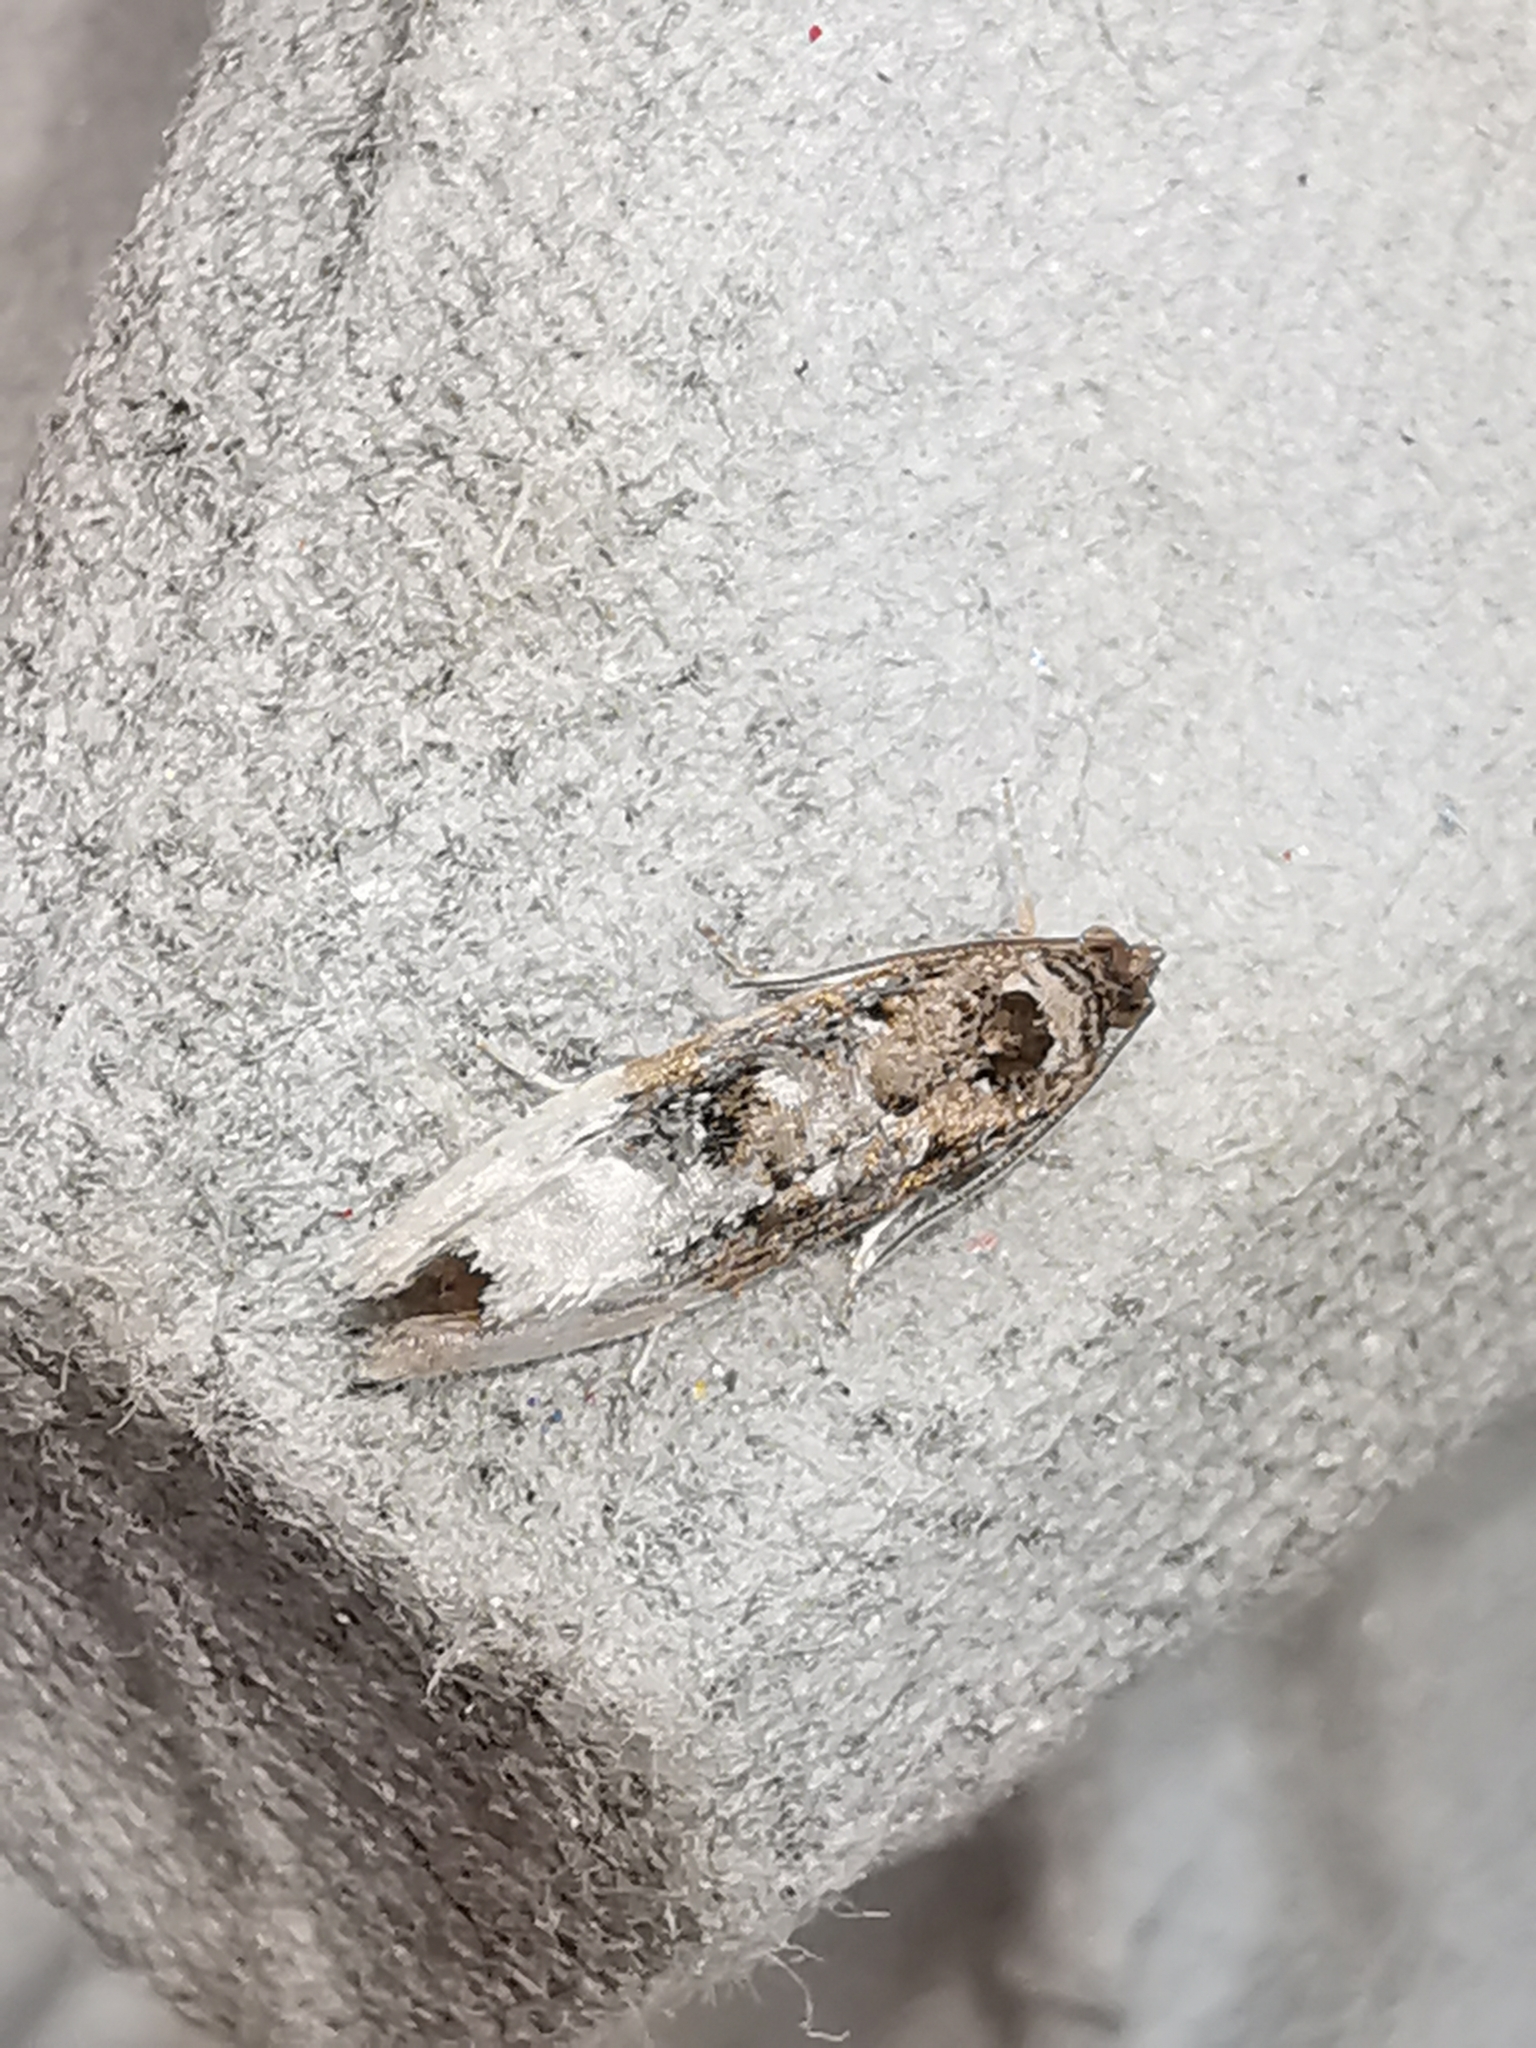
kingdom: Animalia
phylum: Arthropoda
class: Insecta
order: Lepidoptera
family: Tortricidae
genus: Hedya
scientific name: Hedya nubiferana
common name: Marbled orchard tortrix
